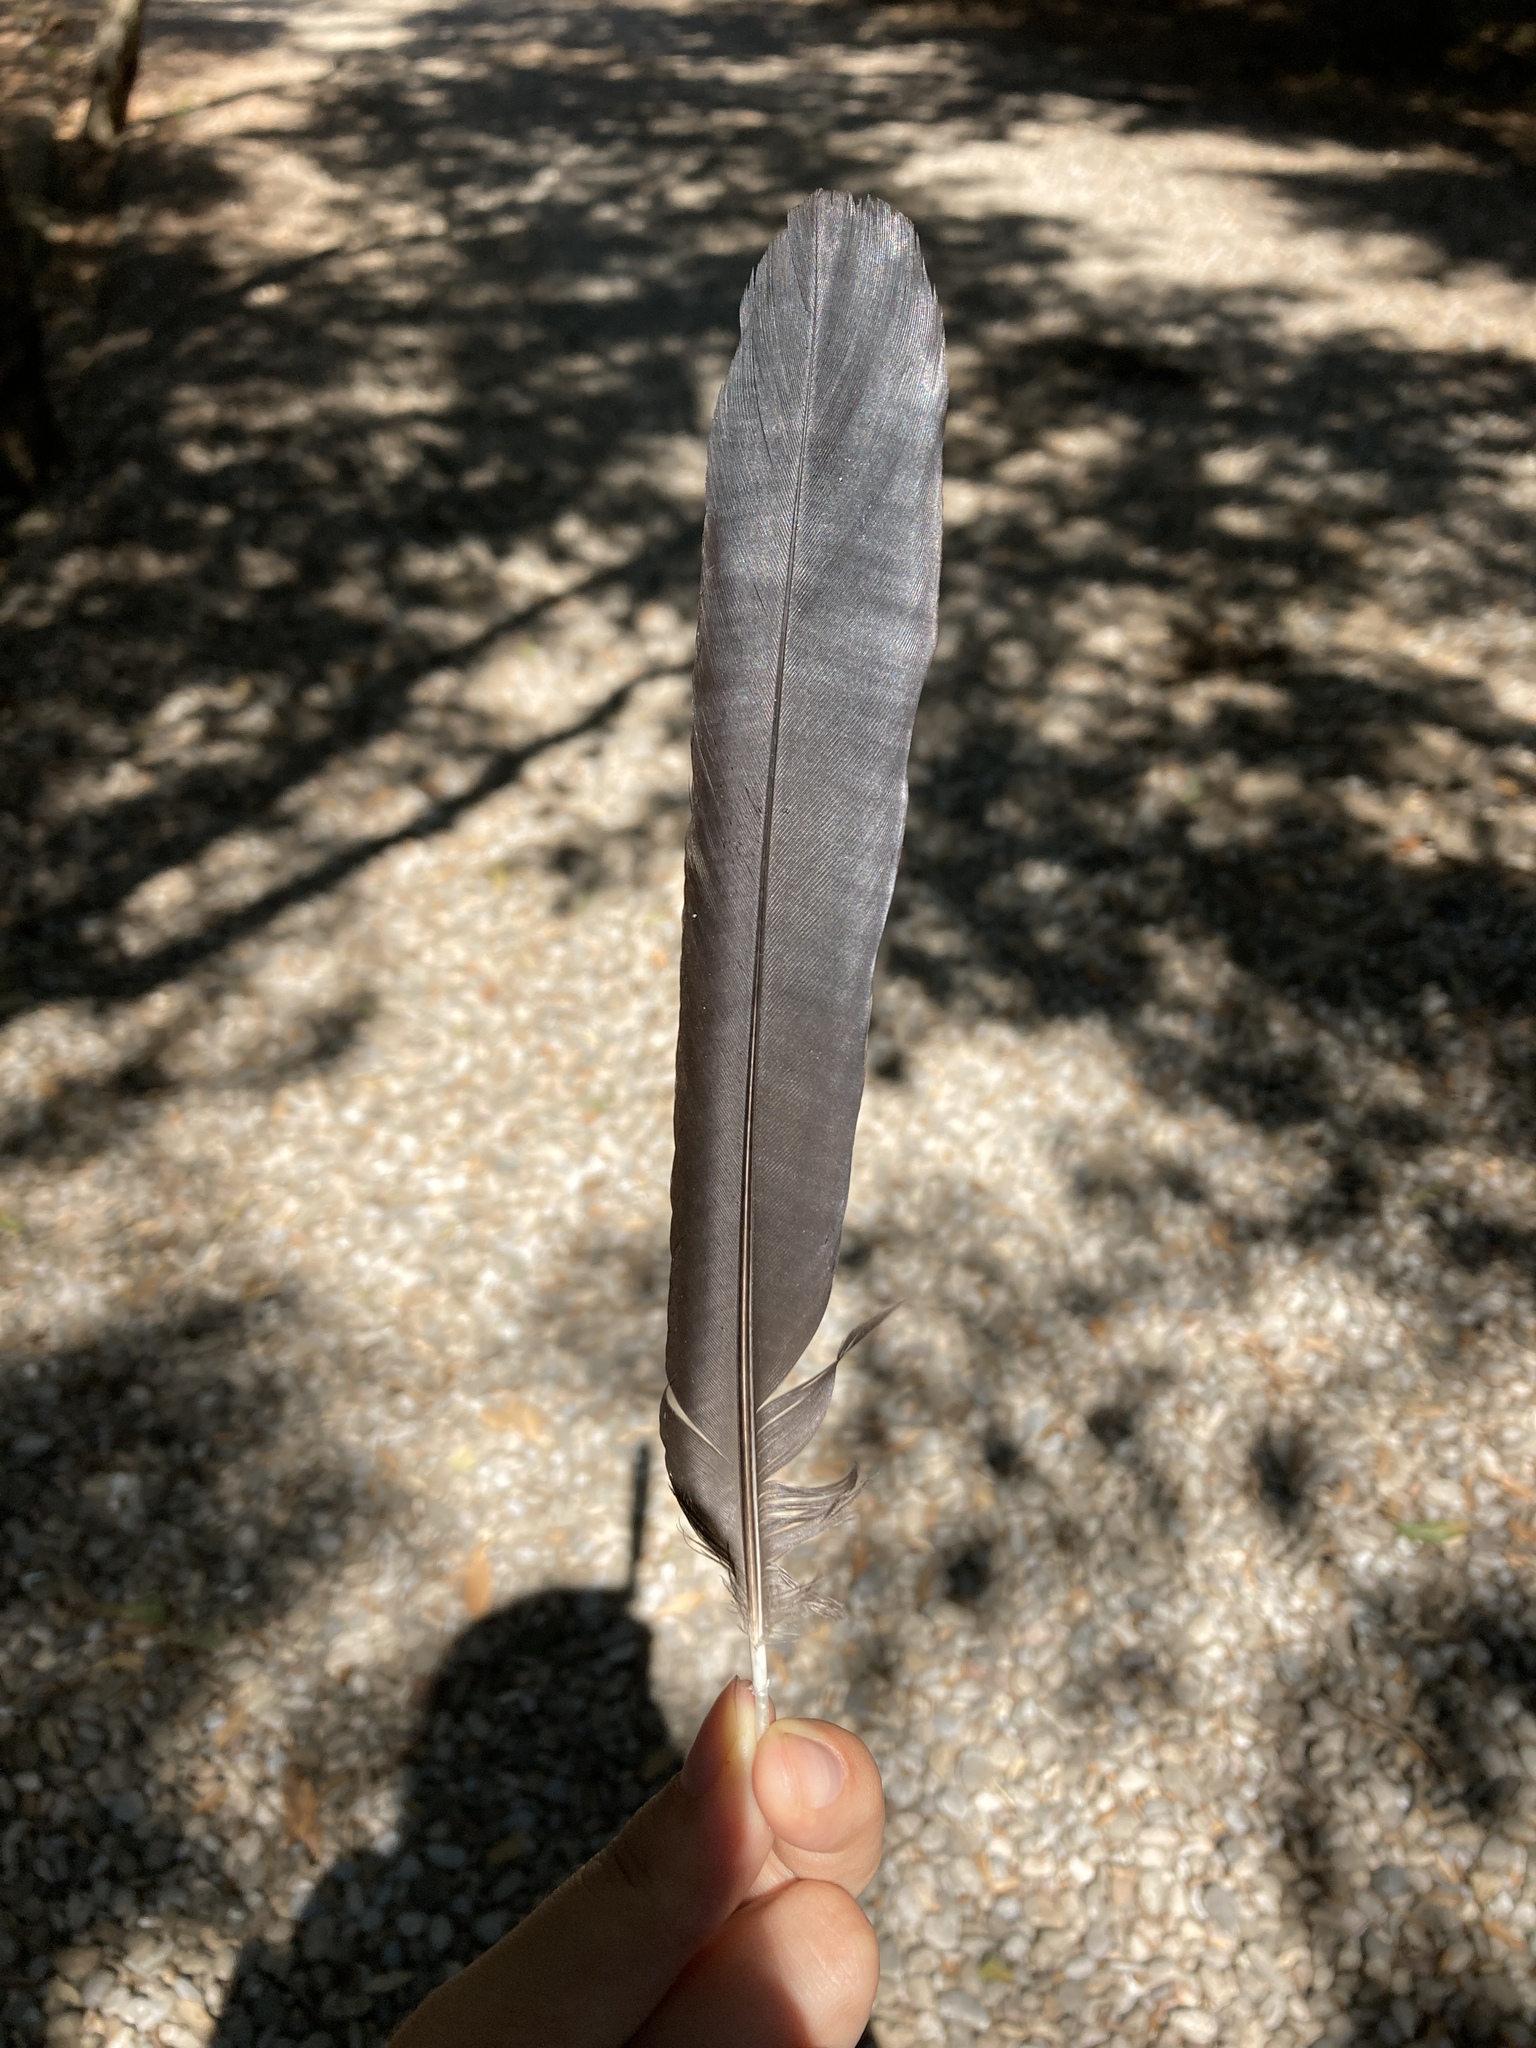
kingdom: Animalia
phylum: Chordata
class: Aves
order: Passeriformes
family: Corvidae
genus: Pica
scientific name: Pica pica
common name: Eurasian magpie
